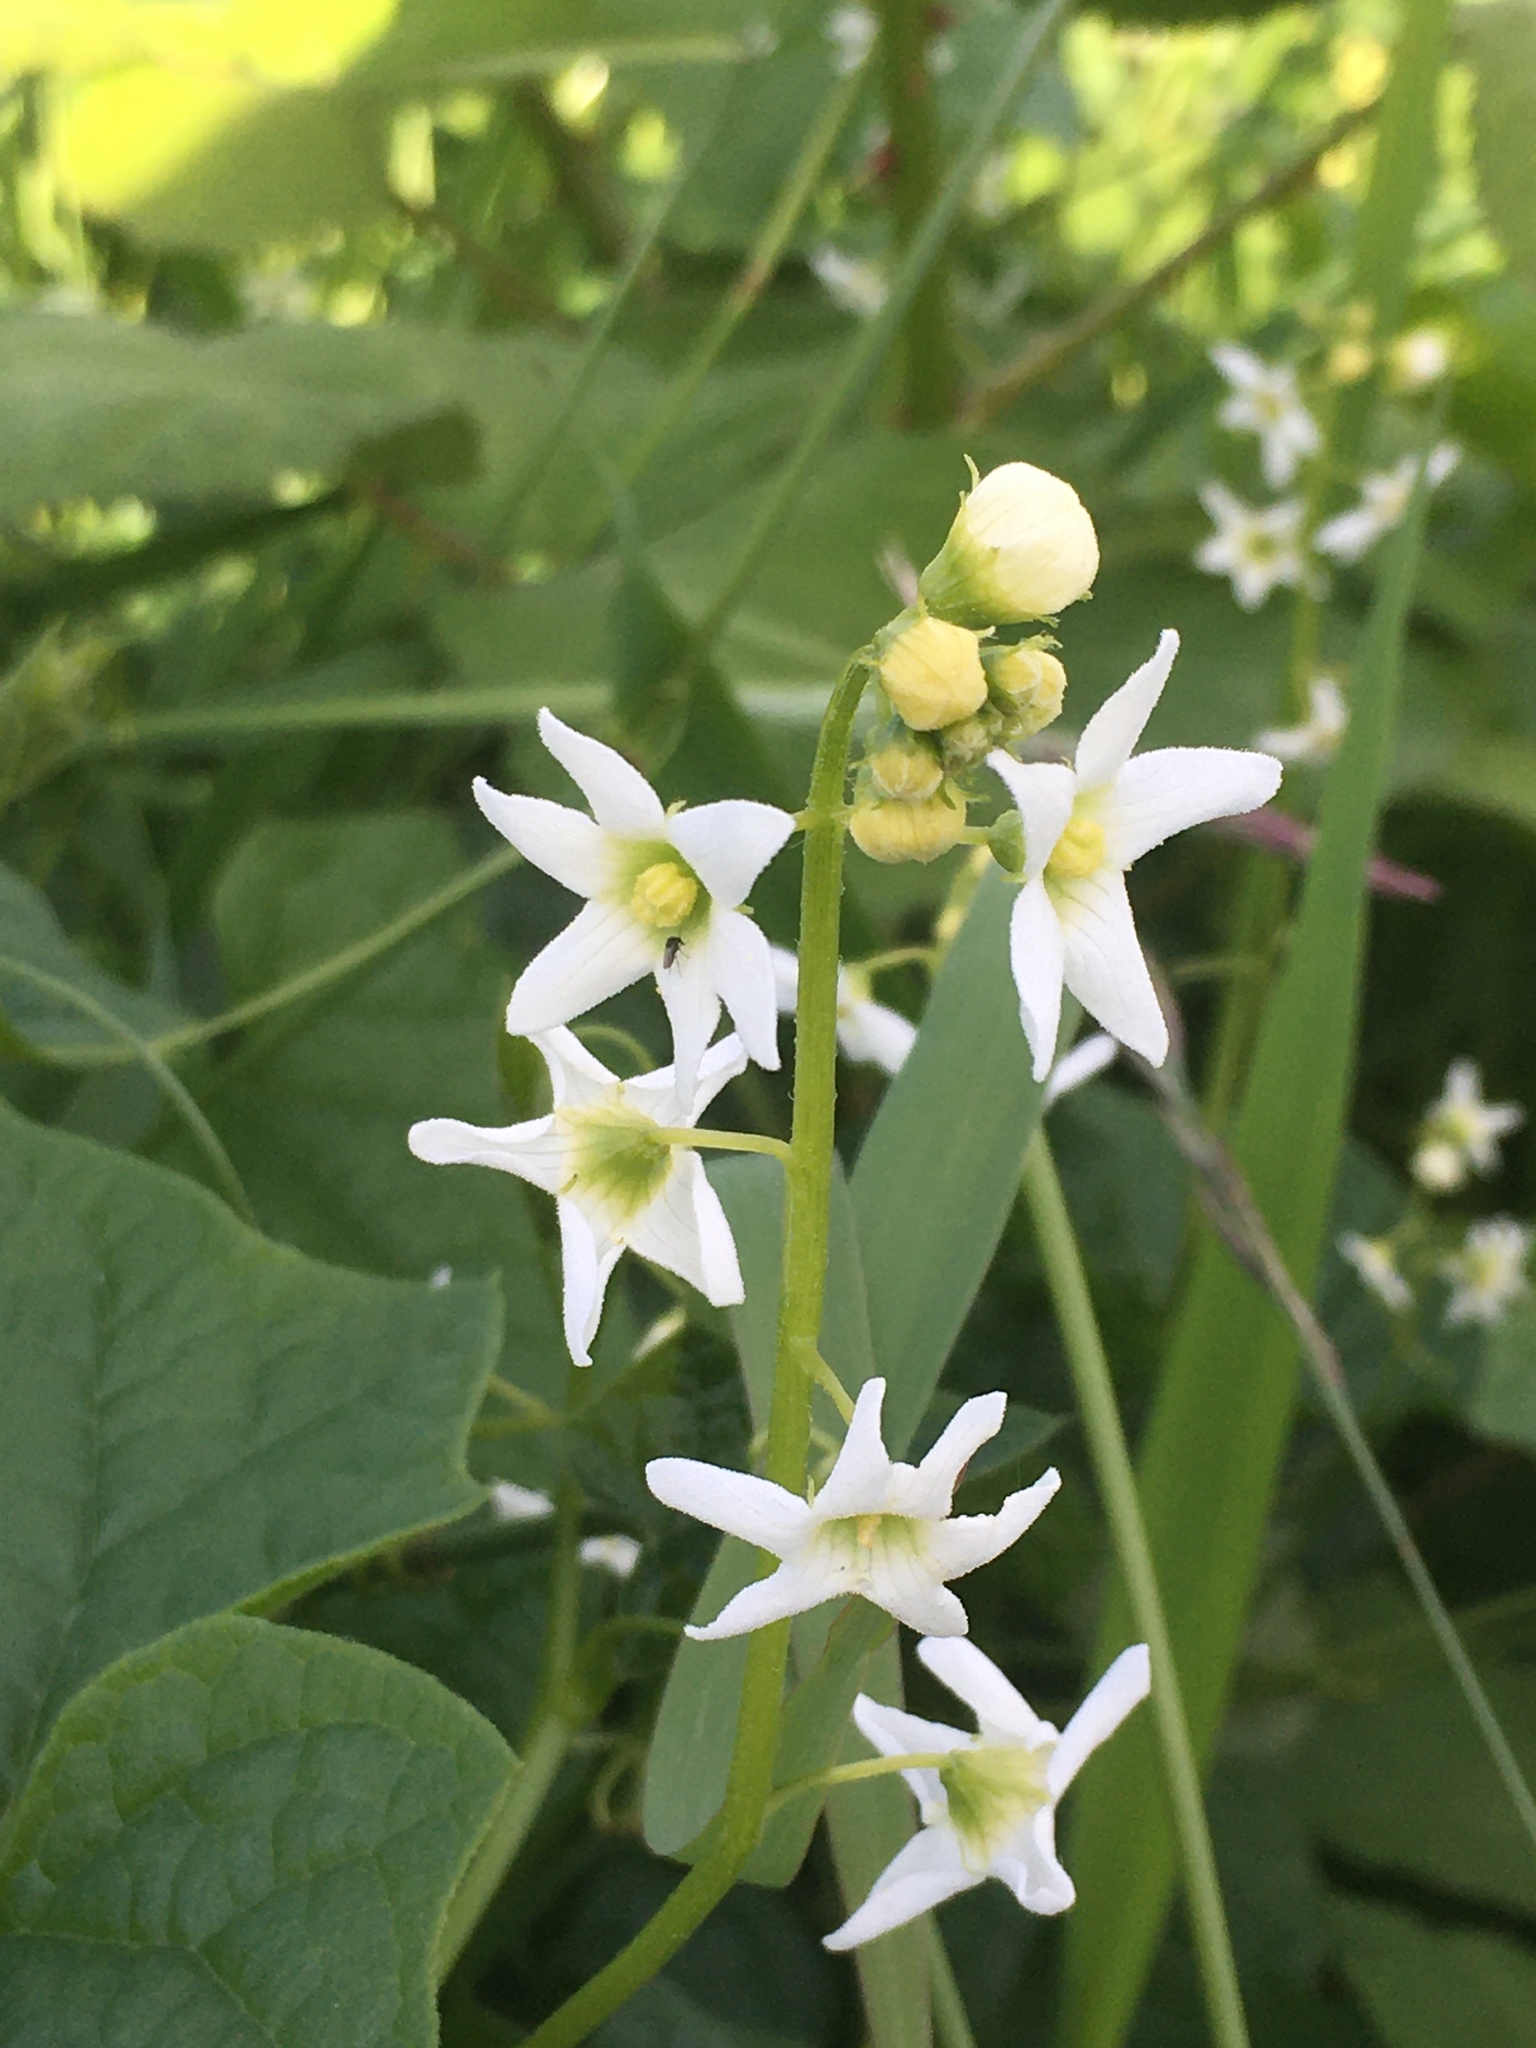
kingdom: Plantae
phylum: Tracheophyta
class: Magnoliopsida
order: Cucurbitales
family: Cucurbitaceae
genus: Marah
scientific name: Marah oregana
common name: Coastal manroot
